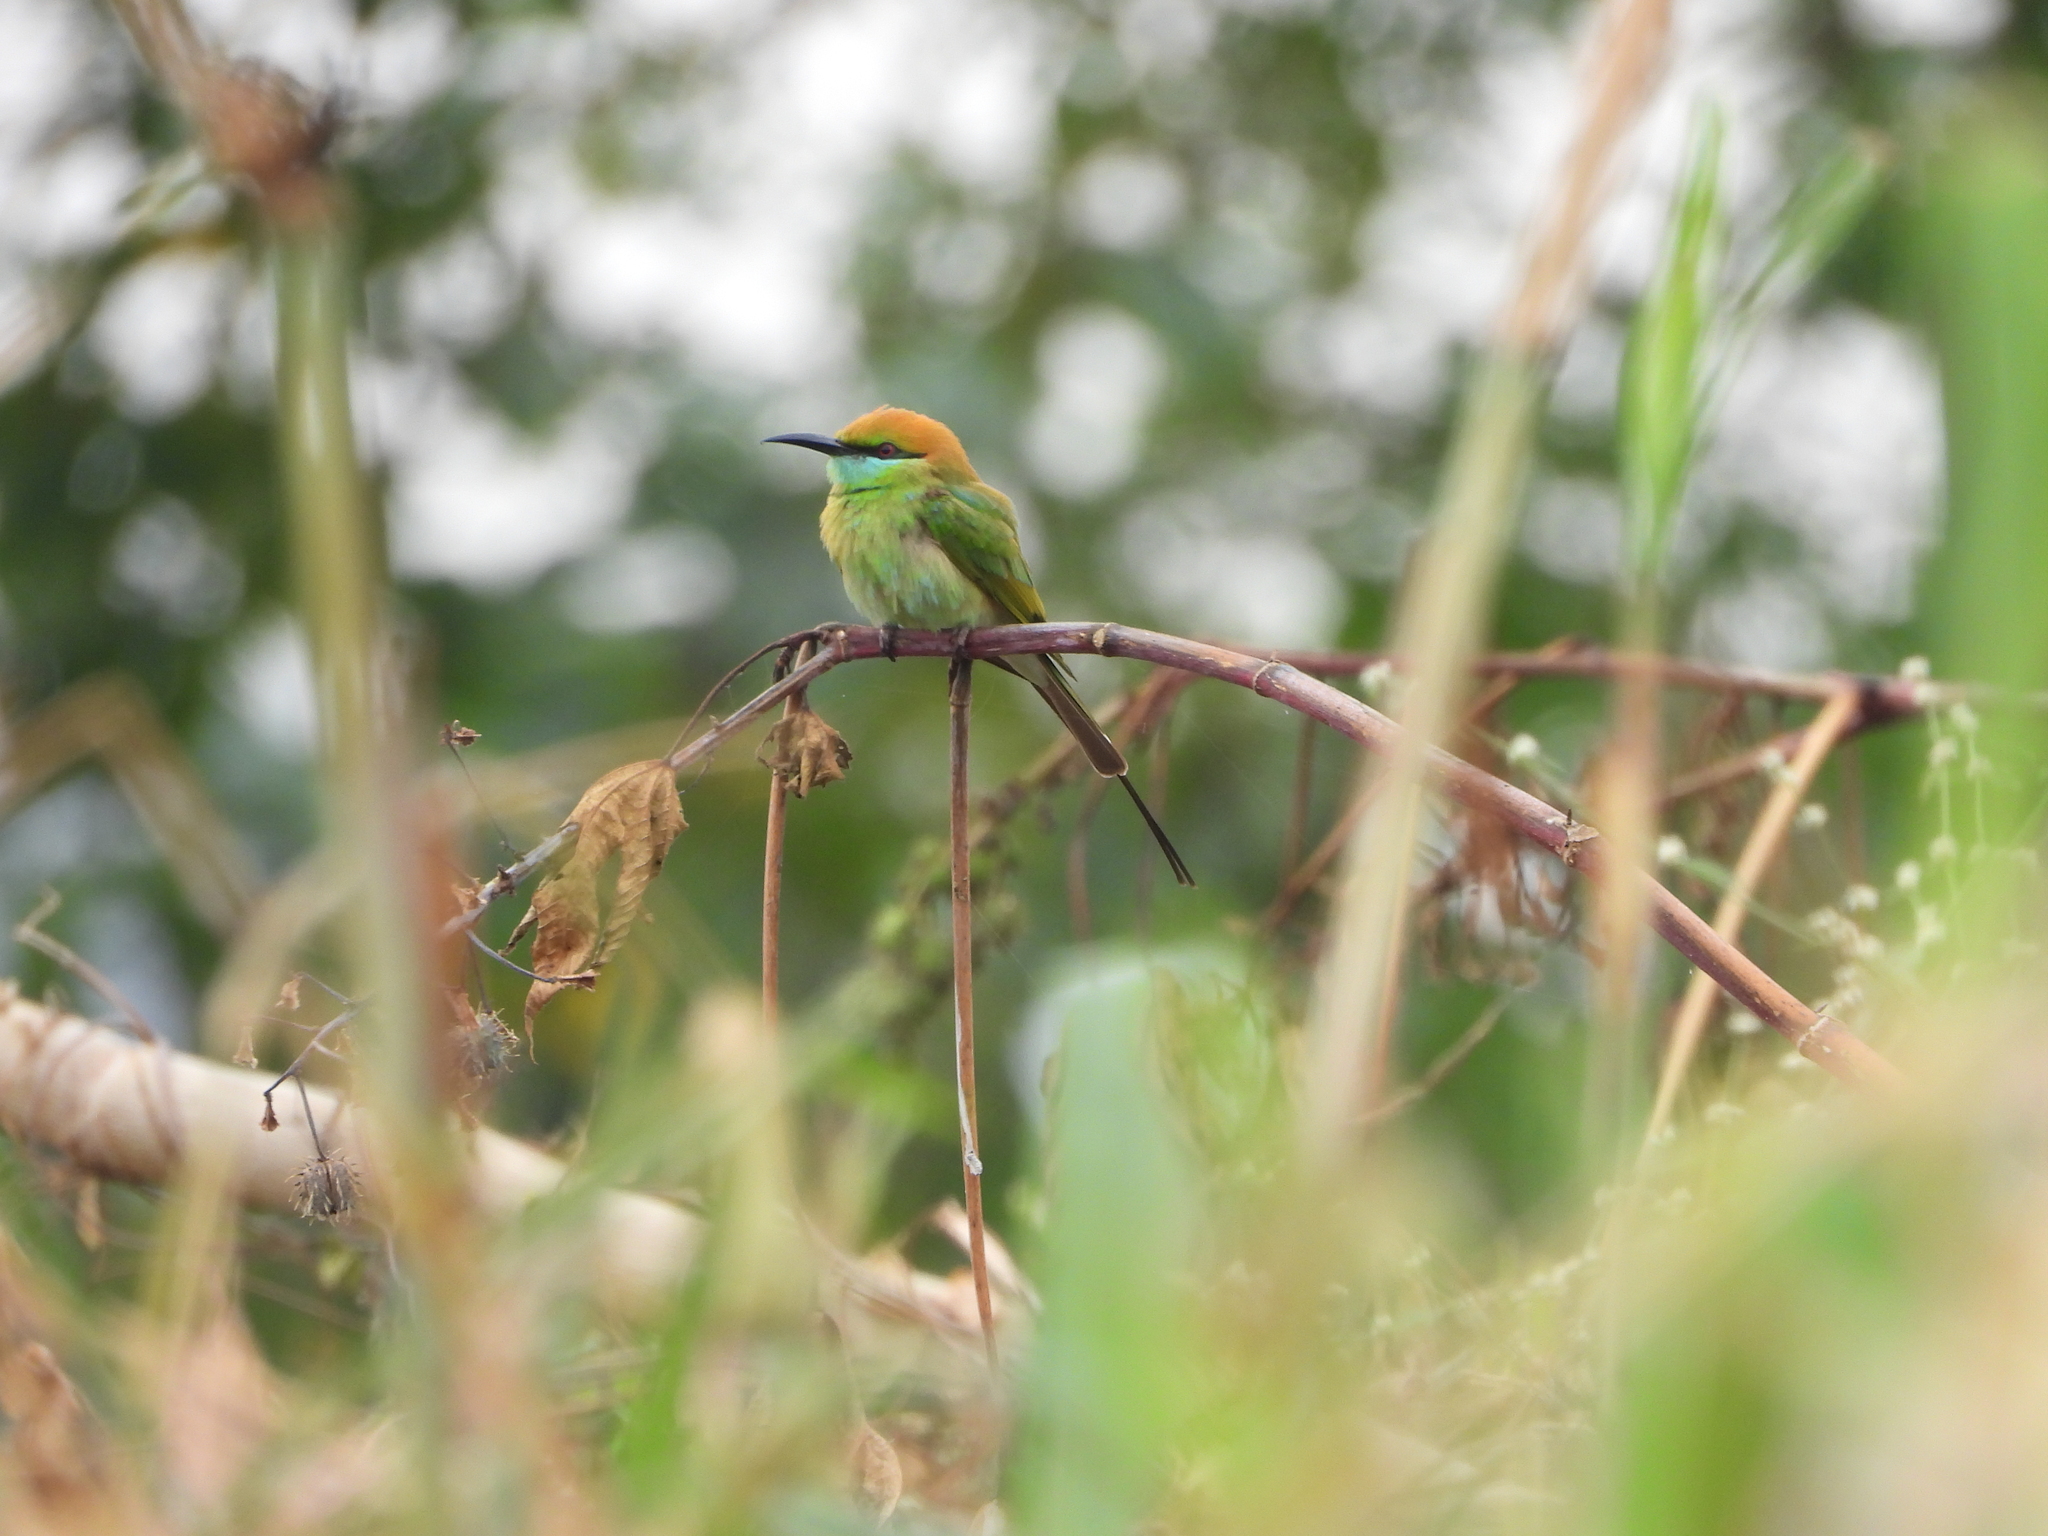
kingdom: Animalia
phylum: Chordata
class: Aves
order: Coraciiformes
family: Meropidae
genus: Merops
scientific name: Merops orientalis
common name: Green bee-eater
